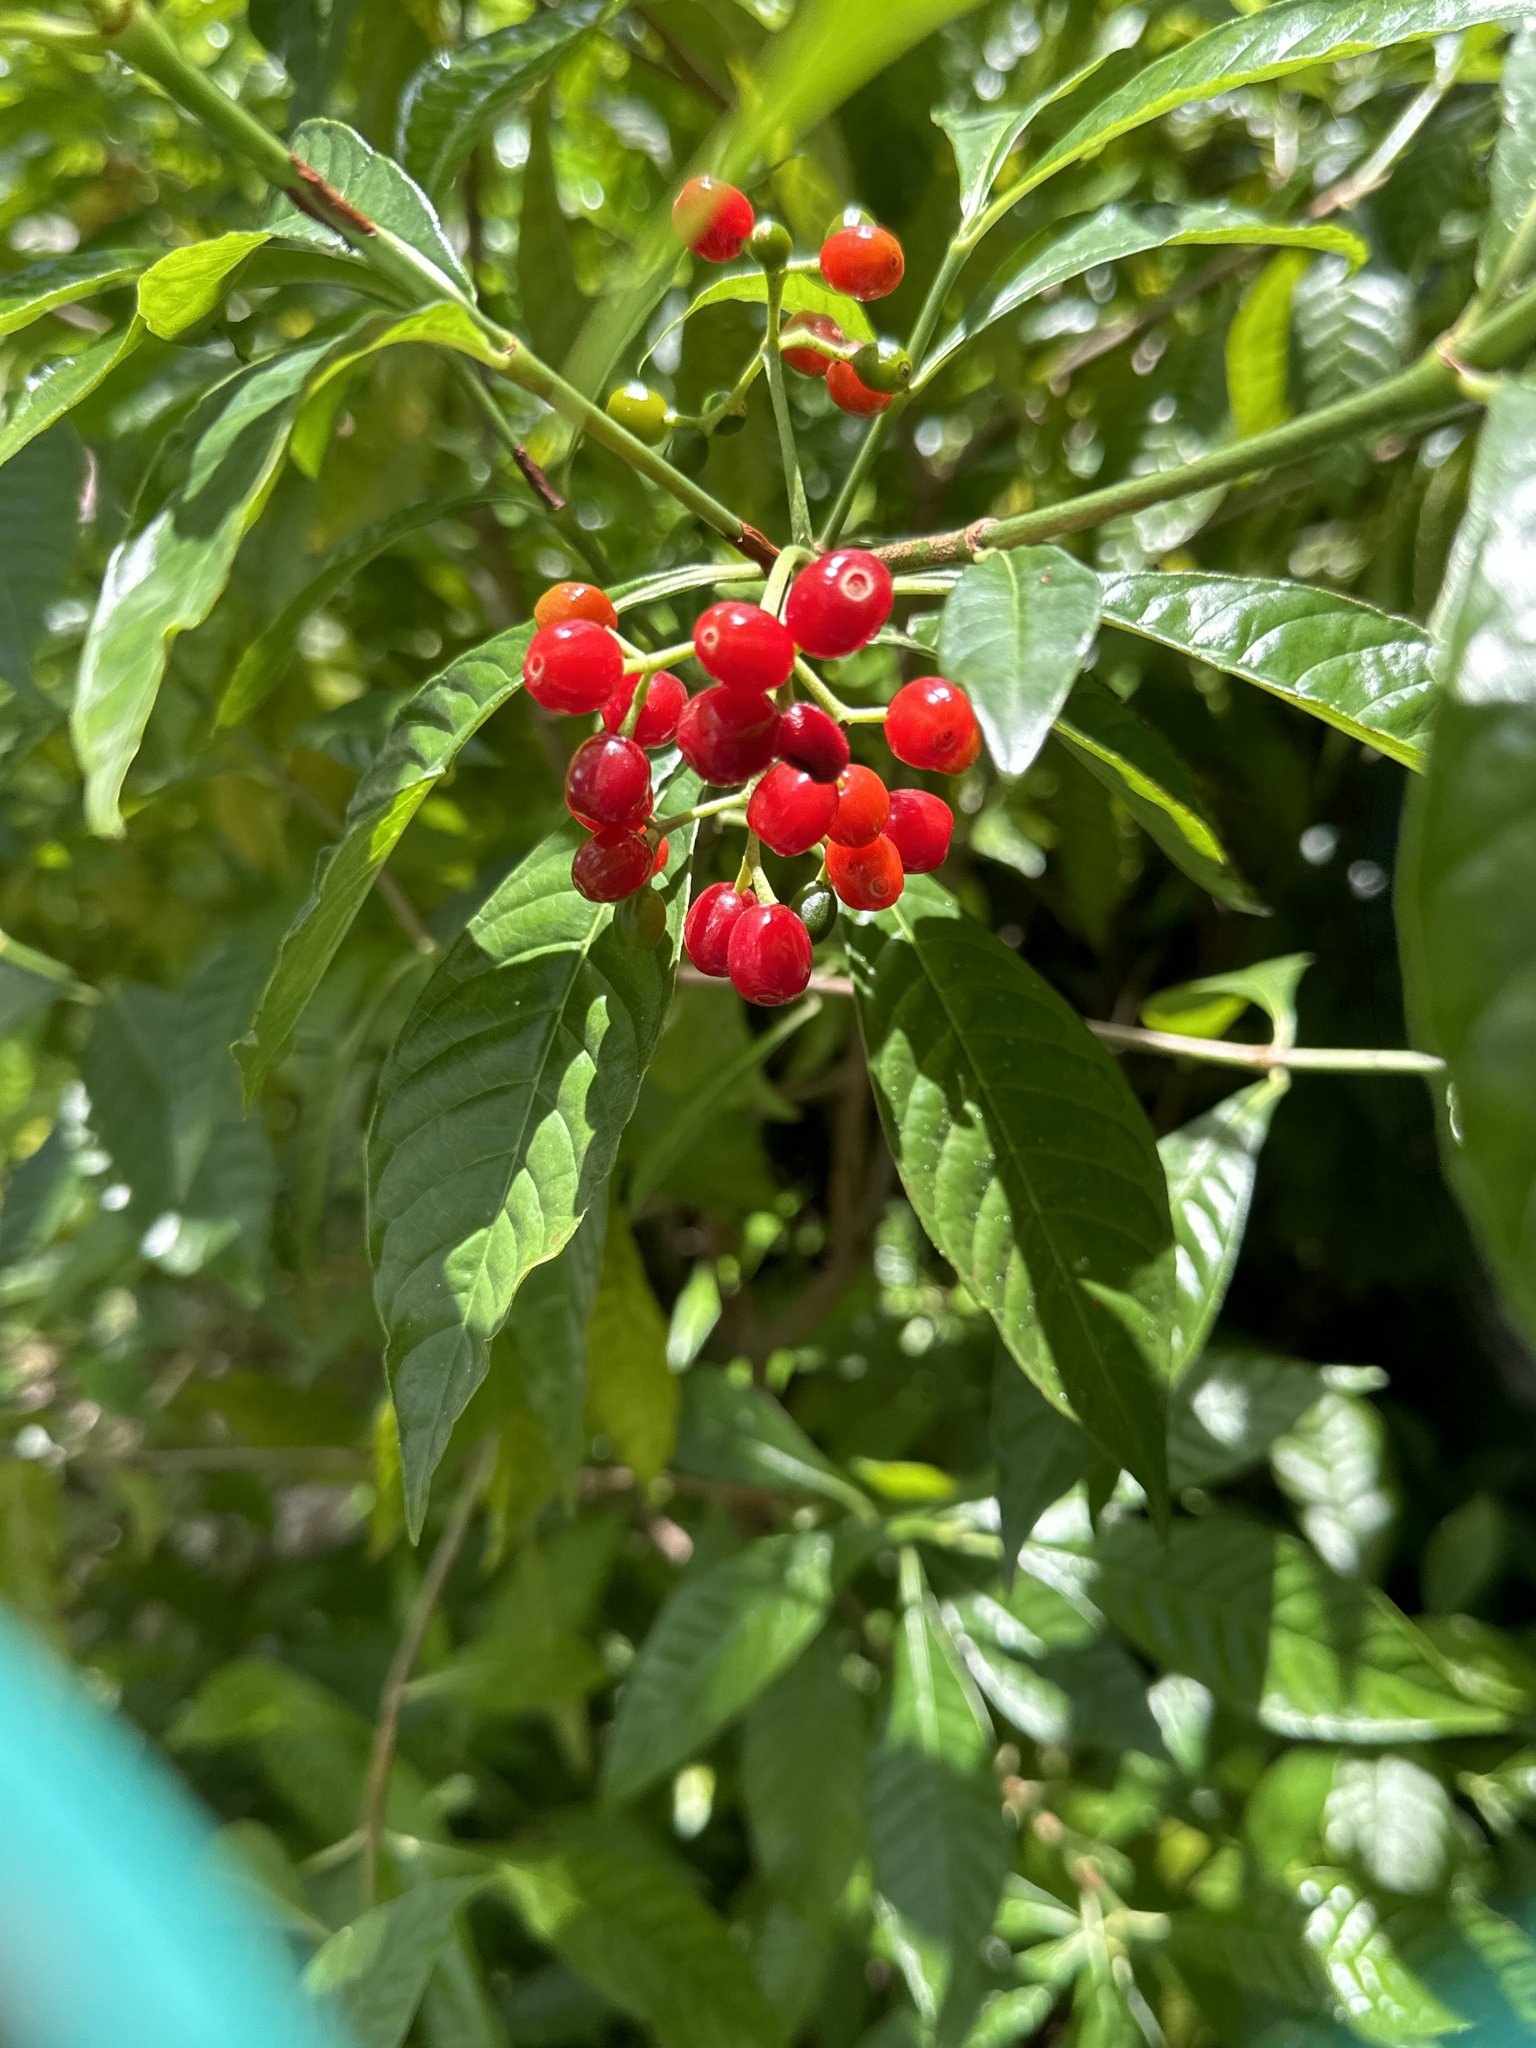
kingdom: Plantae
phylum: Tracheophyta
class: Magnoliopsida
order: Gentianales
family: Rubiaceae
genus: Psychotria
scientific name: Psychotria nervosa
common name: Bastard cankerberry
